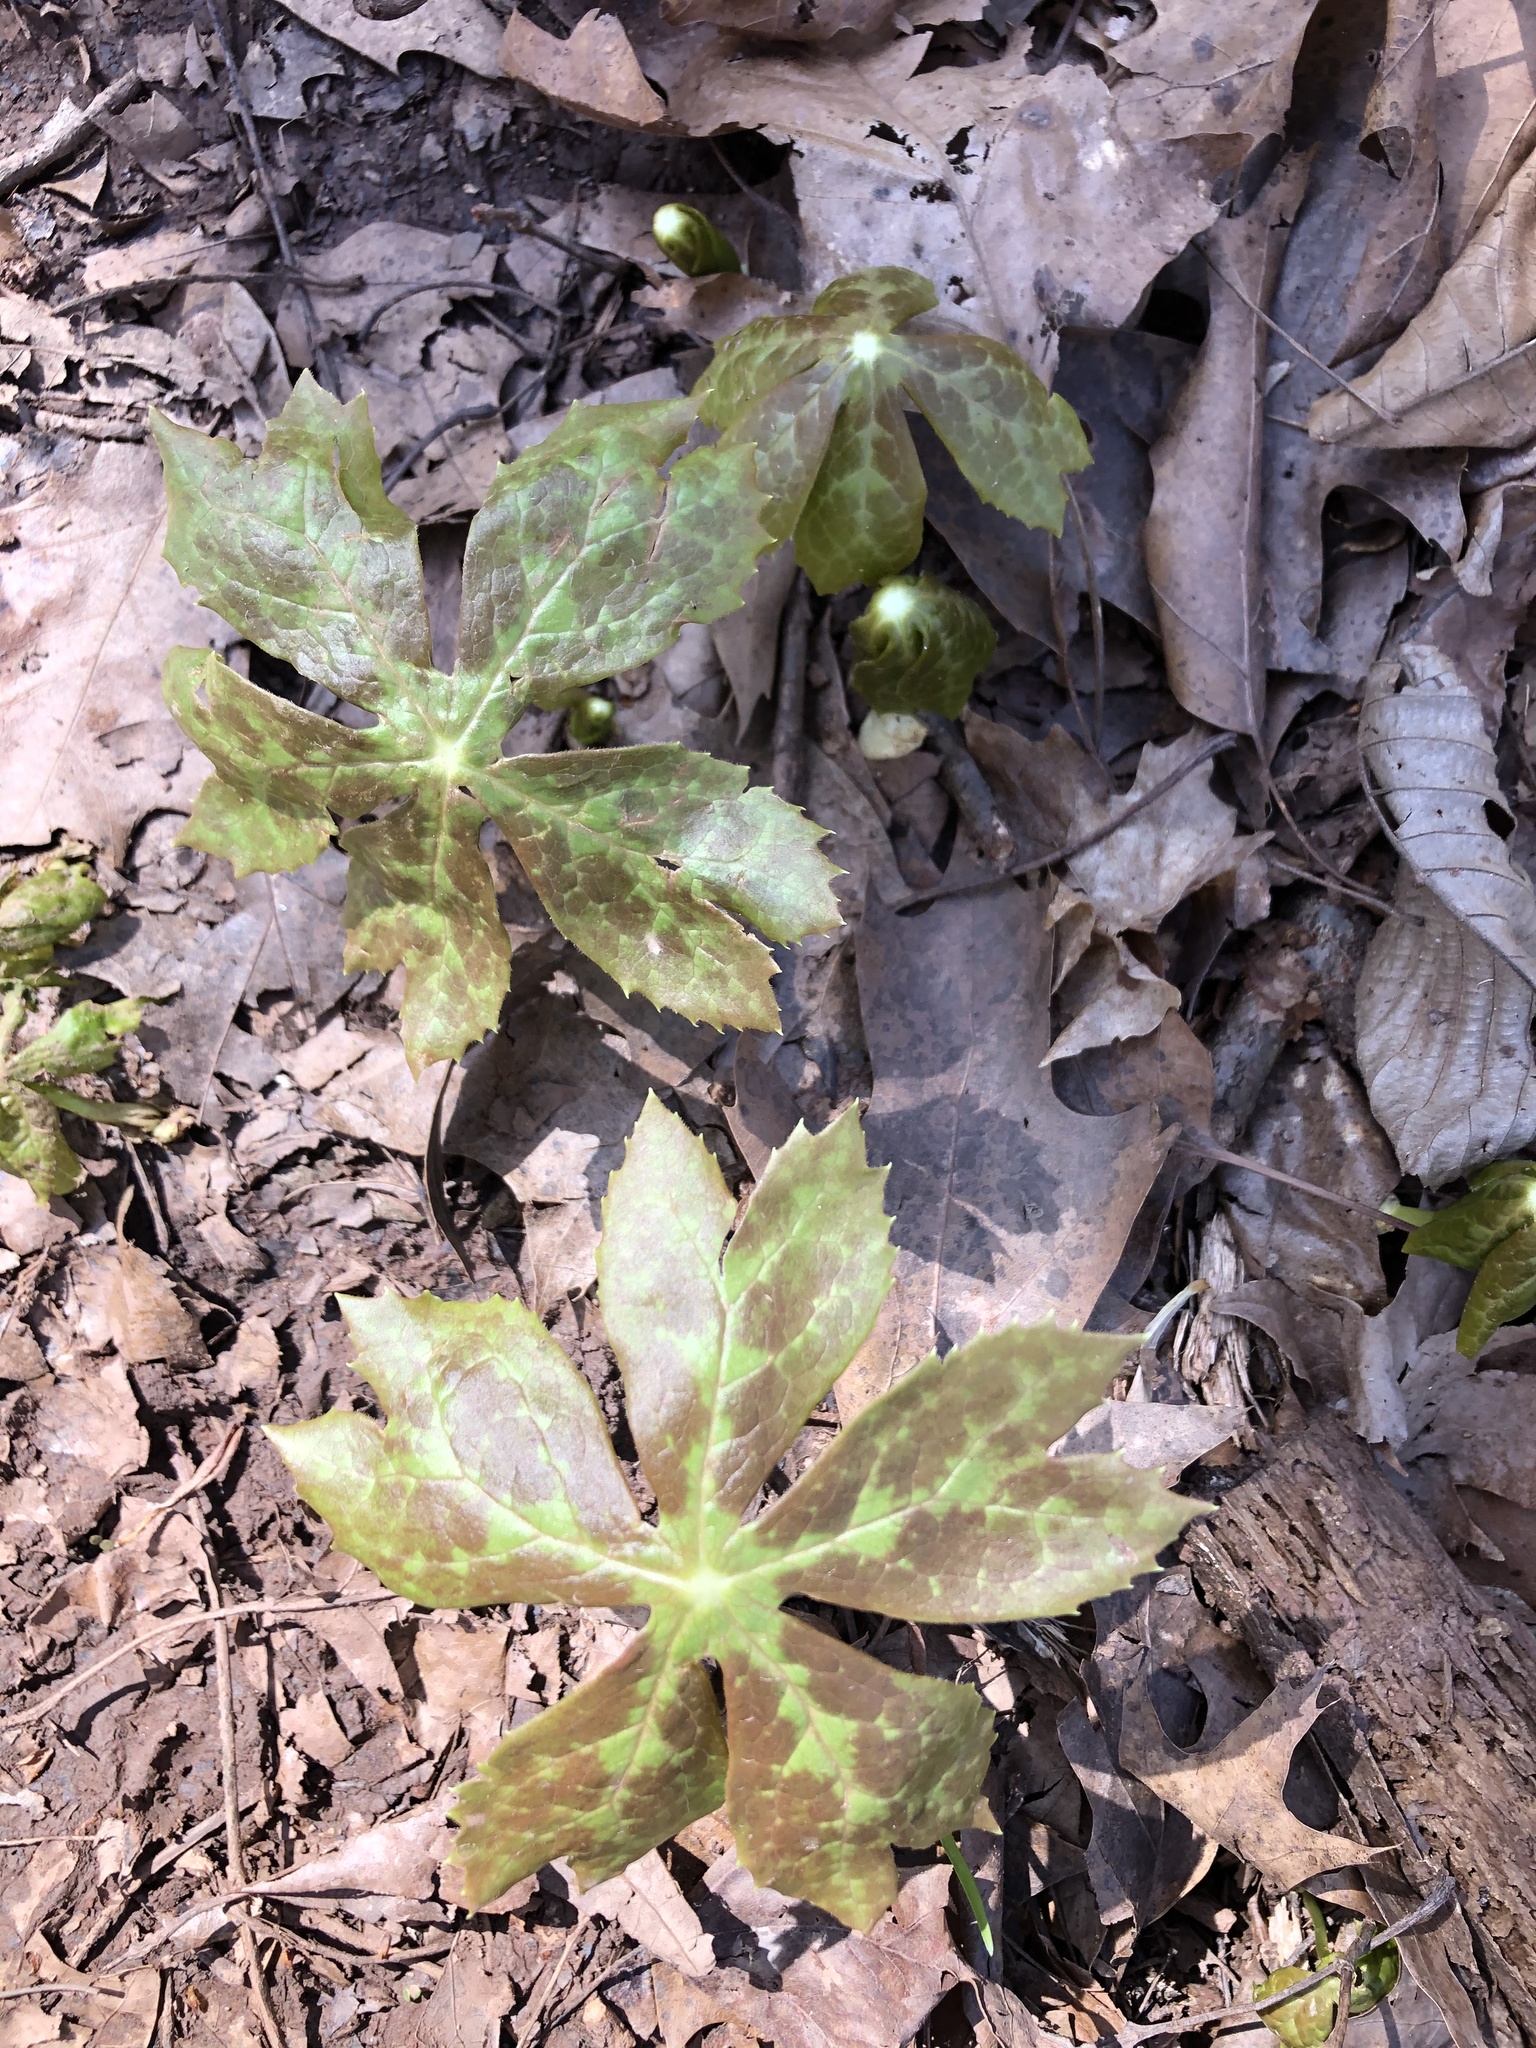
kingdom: Plantae
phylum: Tracheophyta
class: Magnoliopsida
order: Ranunculales
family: Berberidaceae
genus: Podophyllum
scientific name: Podophyllum peltatum
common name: Wild mandrake
